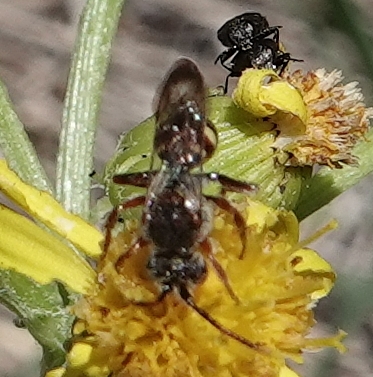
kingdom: Animalia
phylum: Arthropoda
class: Insecta
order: Hymenoptera
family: Apidae
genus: Nomada
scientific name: Nomada
